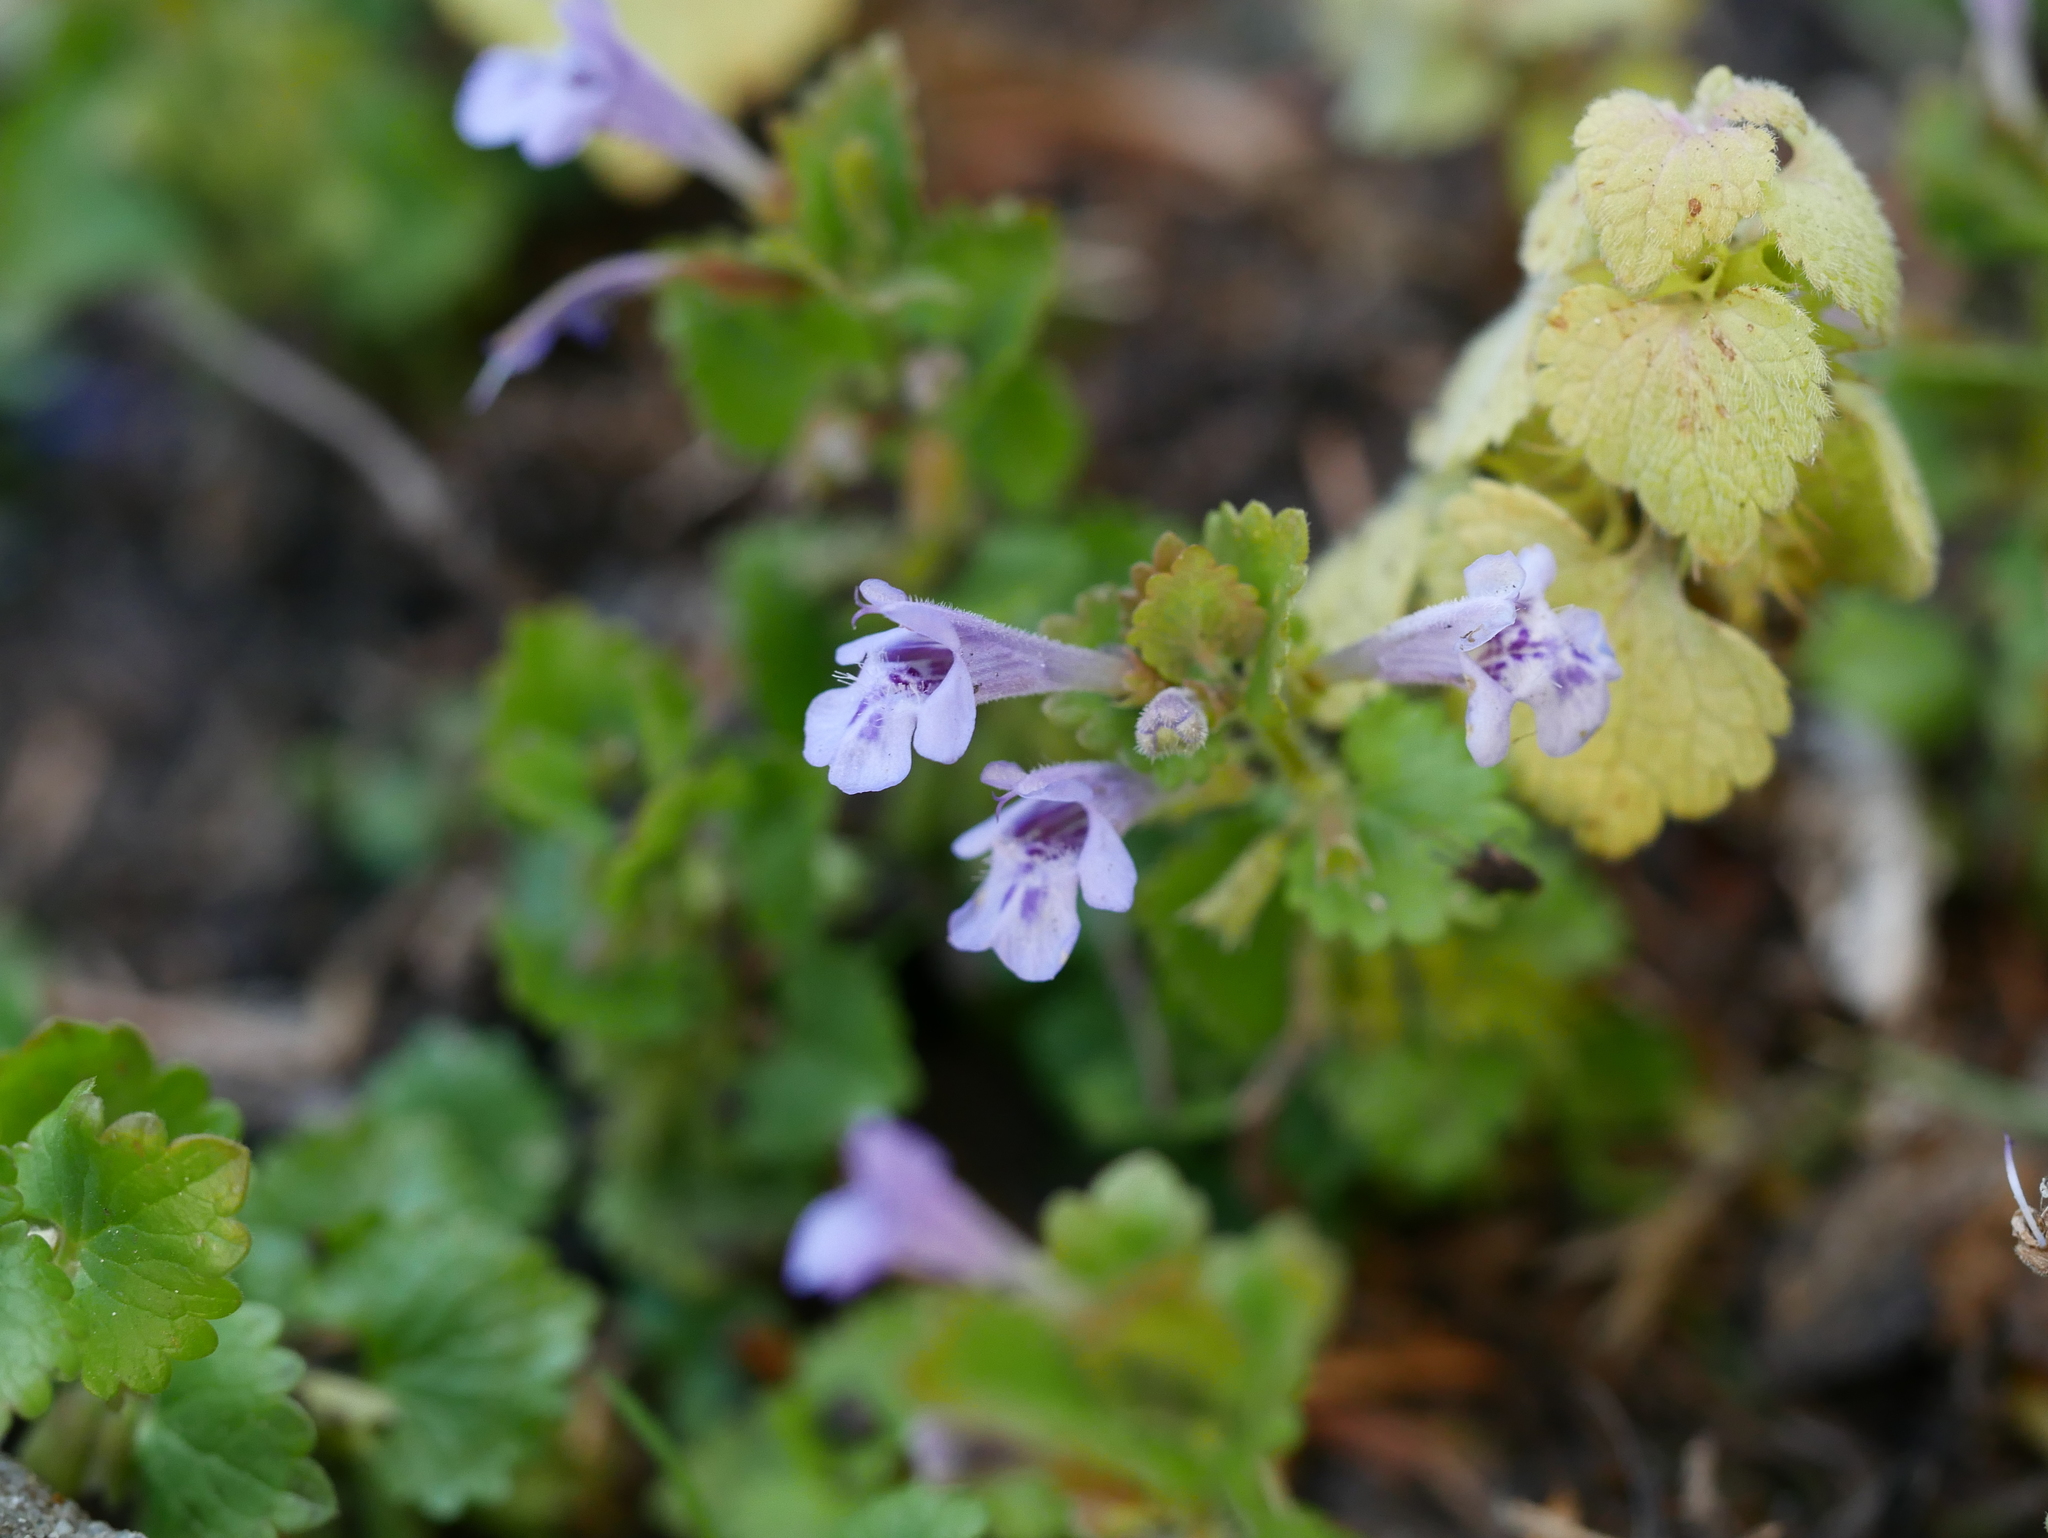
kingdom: Plantae
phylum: Tracheophyta
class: Magnoliopsida
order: Lamiales
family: Lamiaceae
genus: Glechoma
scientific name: Glechoma hederacea
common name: Ground ivy
